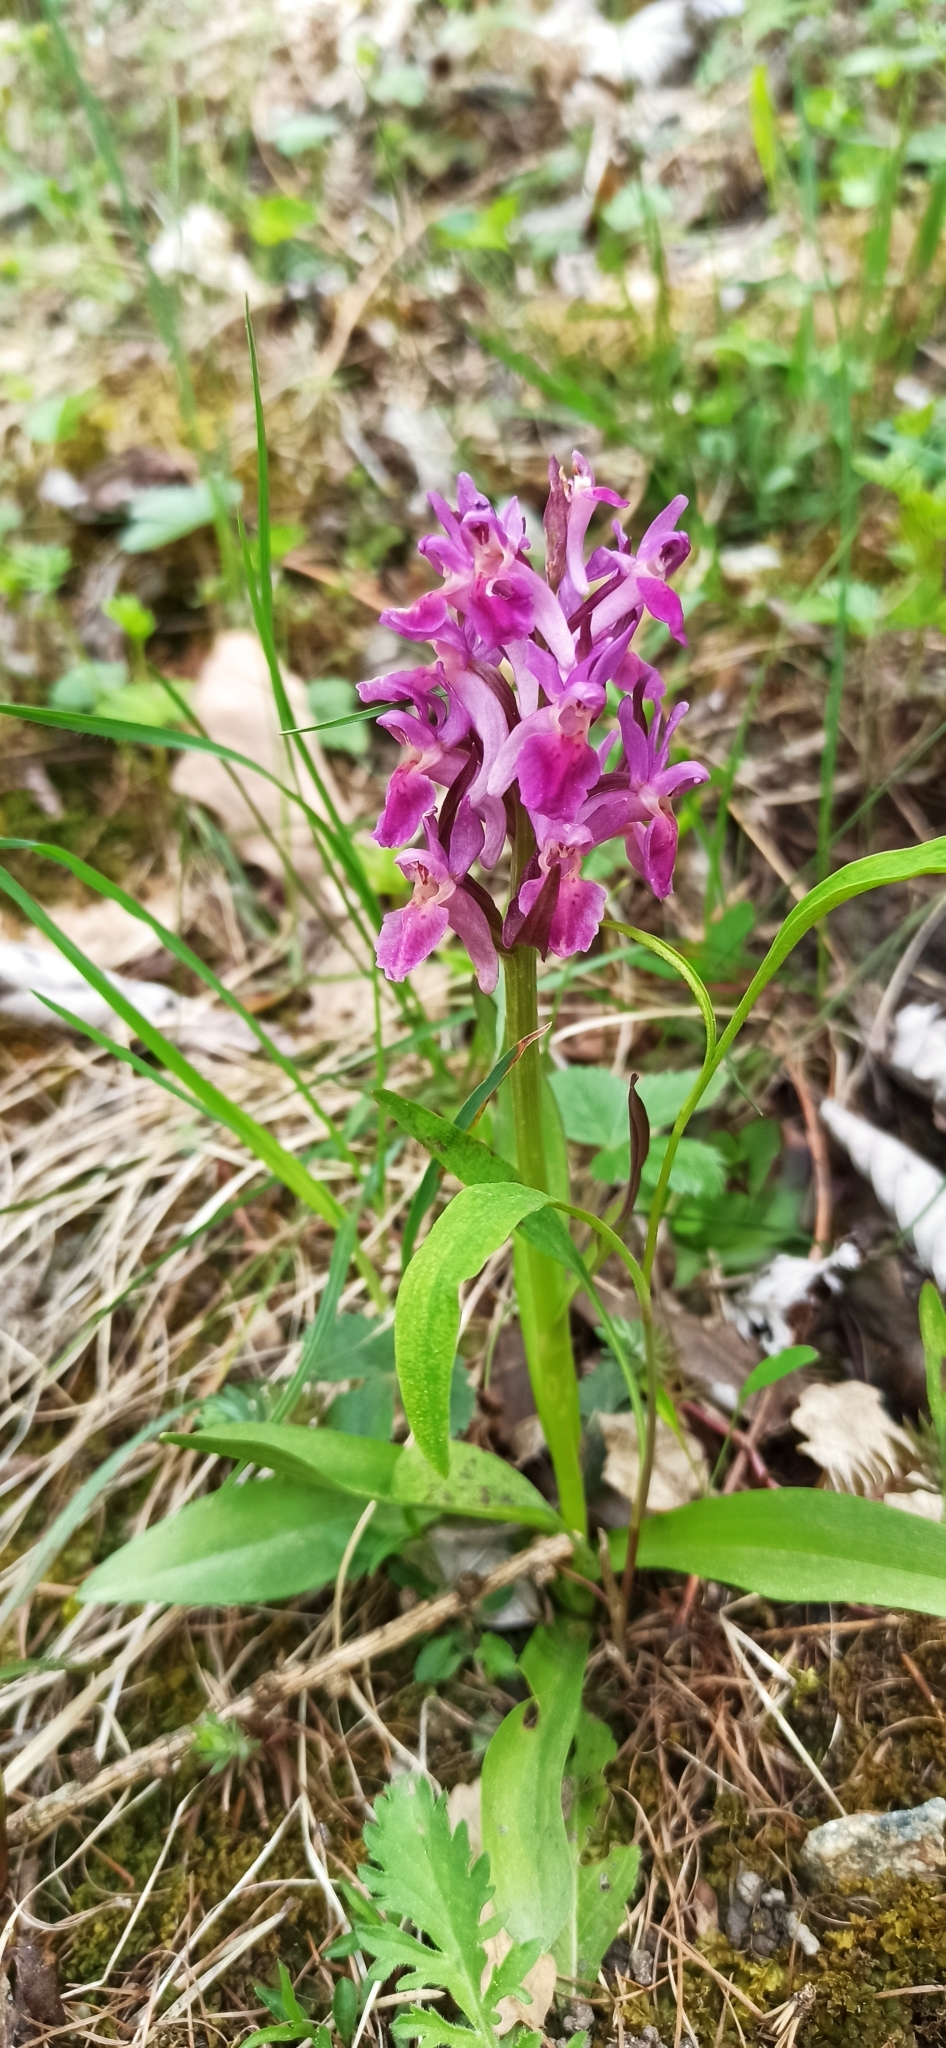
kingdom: Plantae
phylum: Tracheophyta
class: Liliopsida
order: Asparagales
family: Orchidaceae
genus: Dactylorhiza
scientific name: Dactylorhiza sambucina
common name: Elder-flowered orchid
